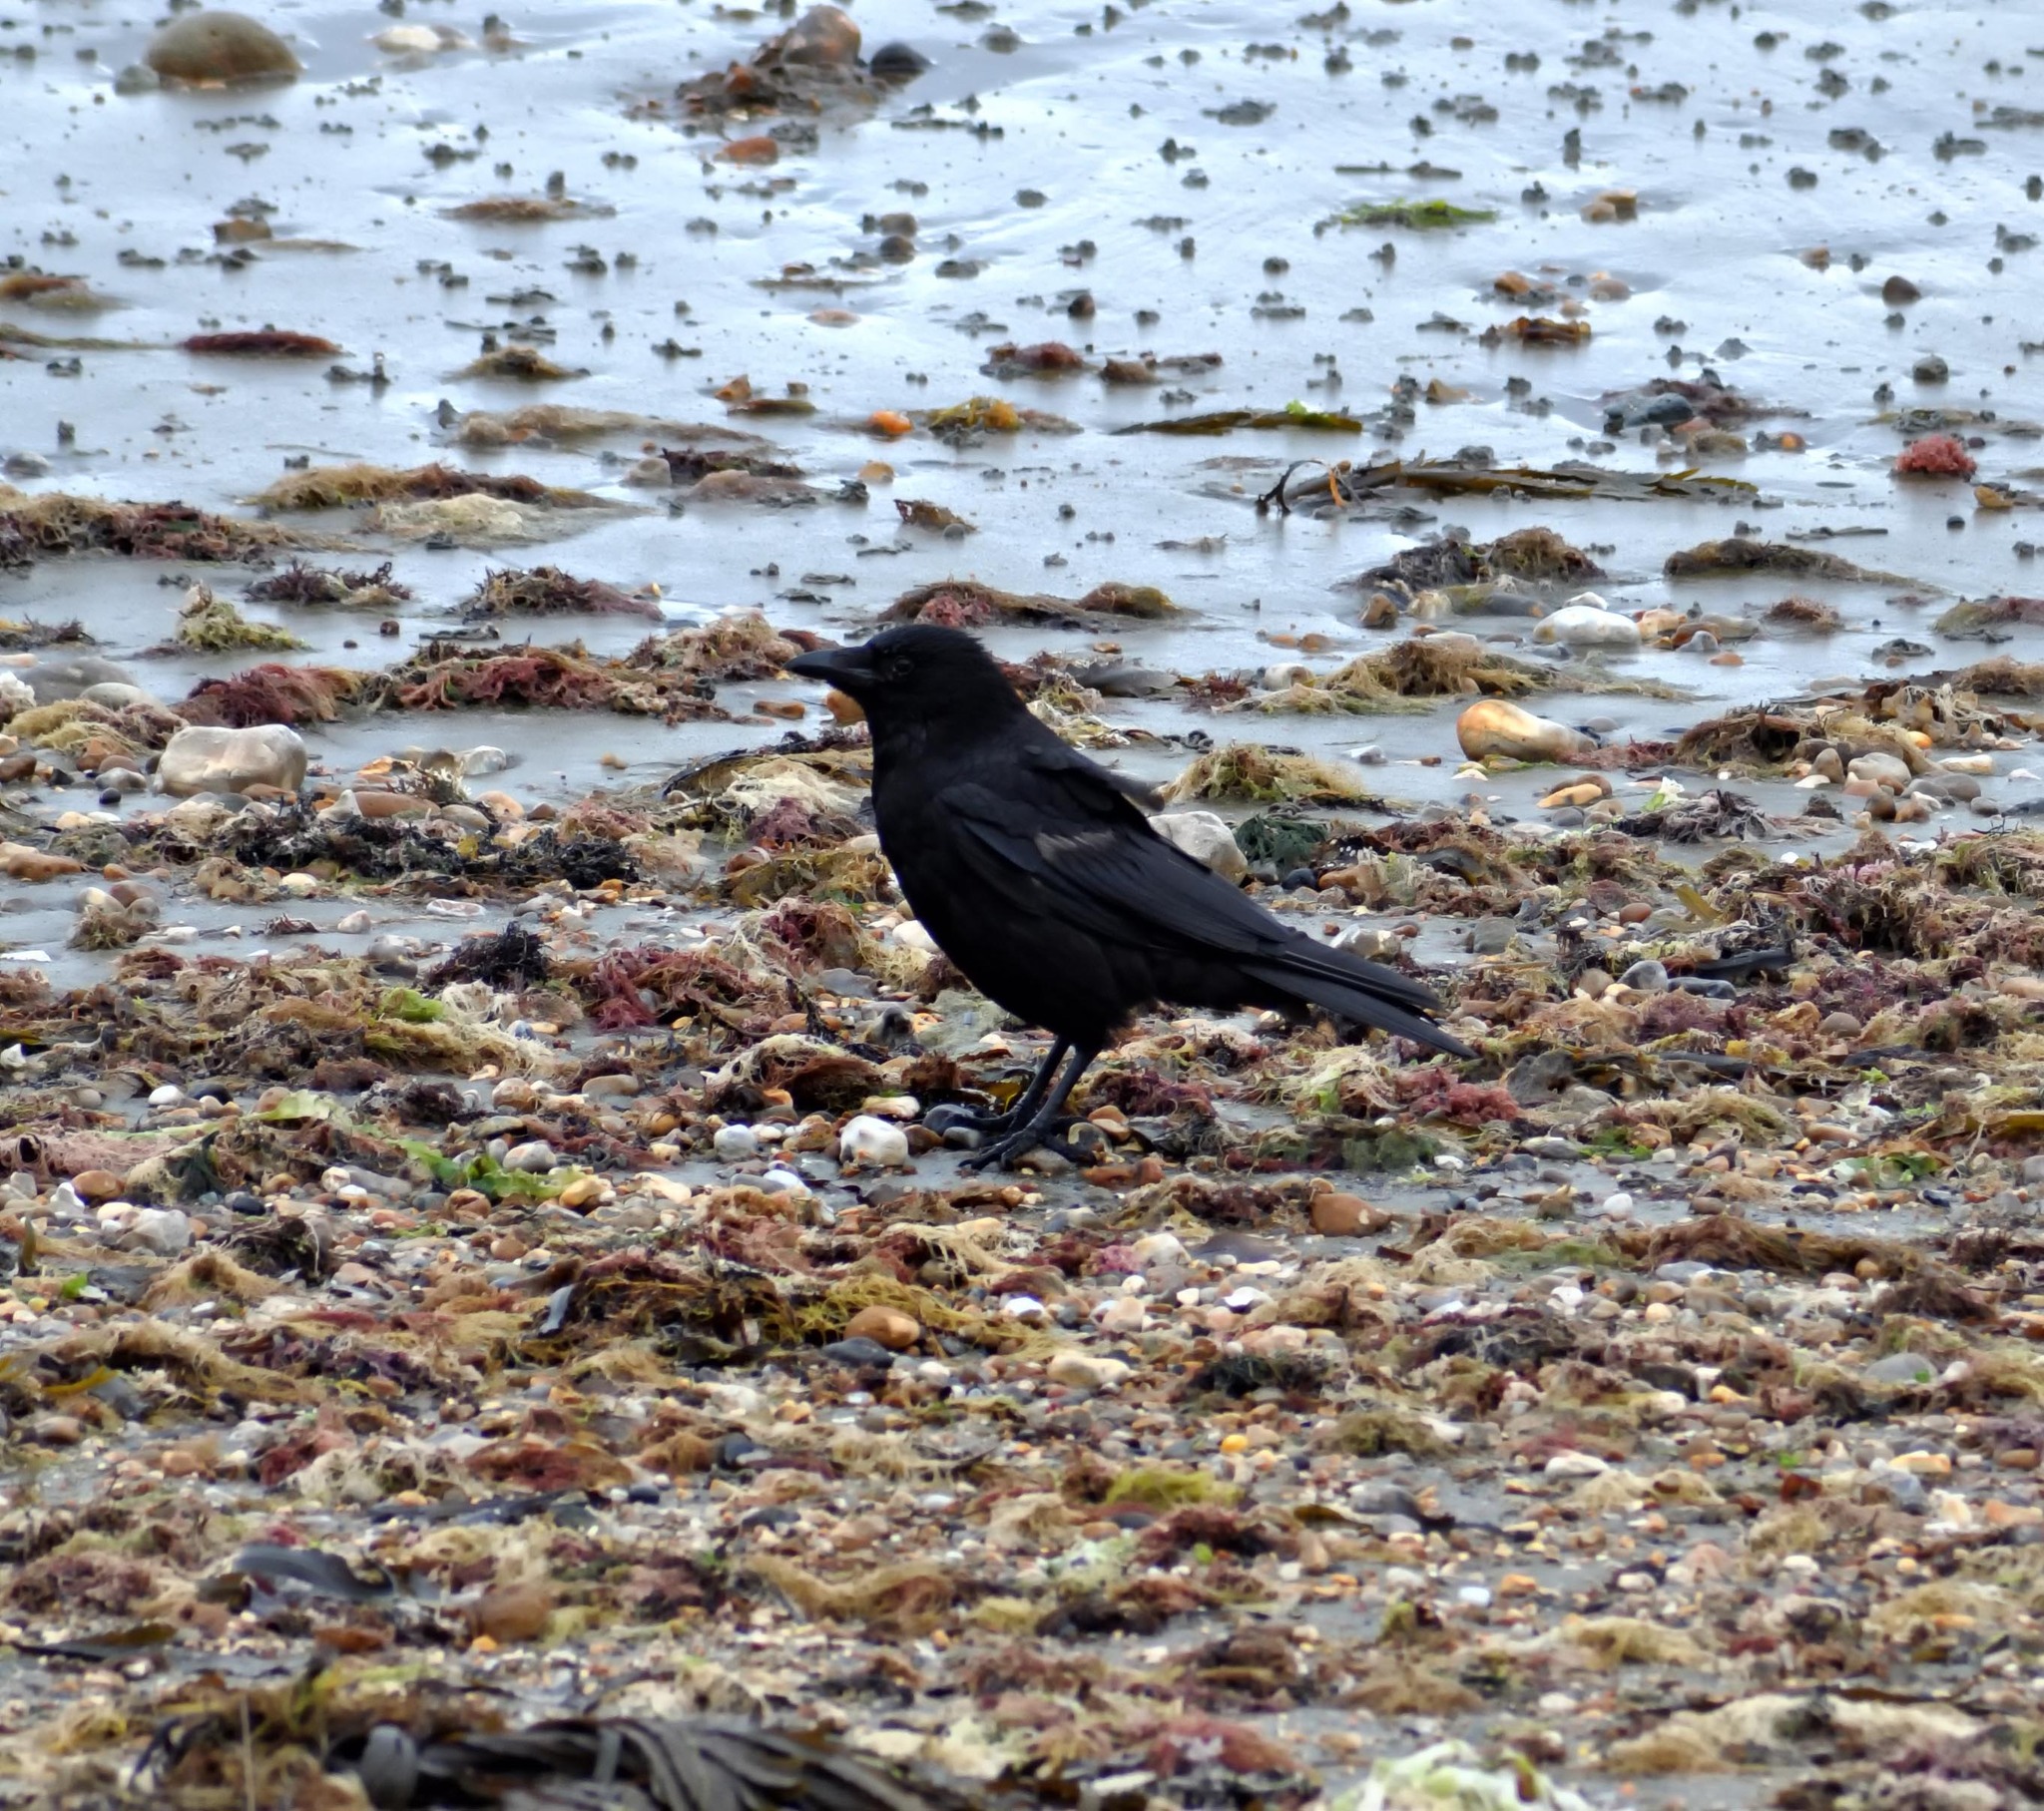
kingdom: Animalia
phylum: Chordata
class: Aves
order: Passeriformes
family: Corvidae
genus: Corvus
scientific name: Corvus corone
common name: Carrion crow
